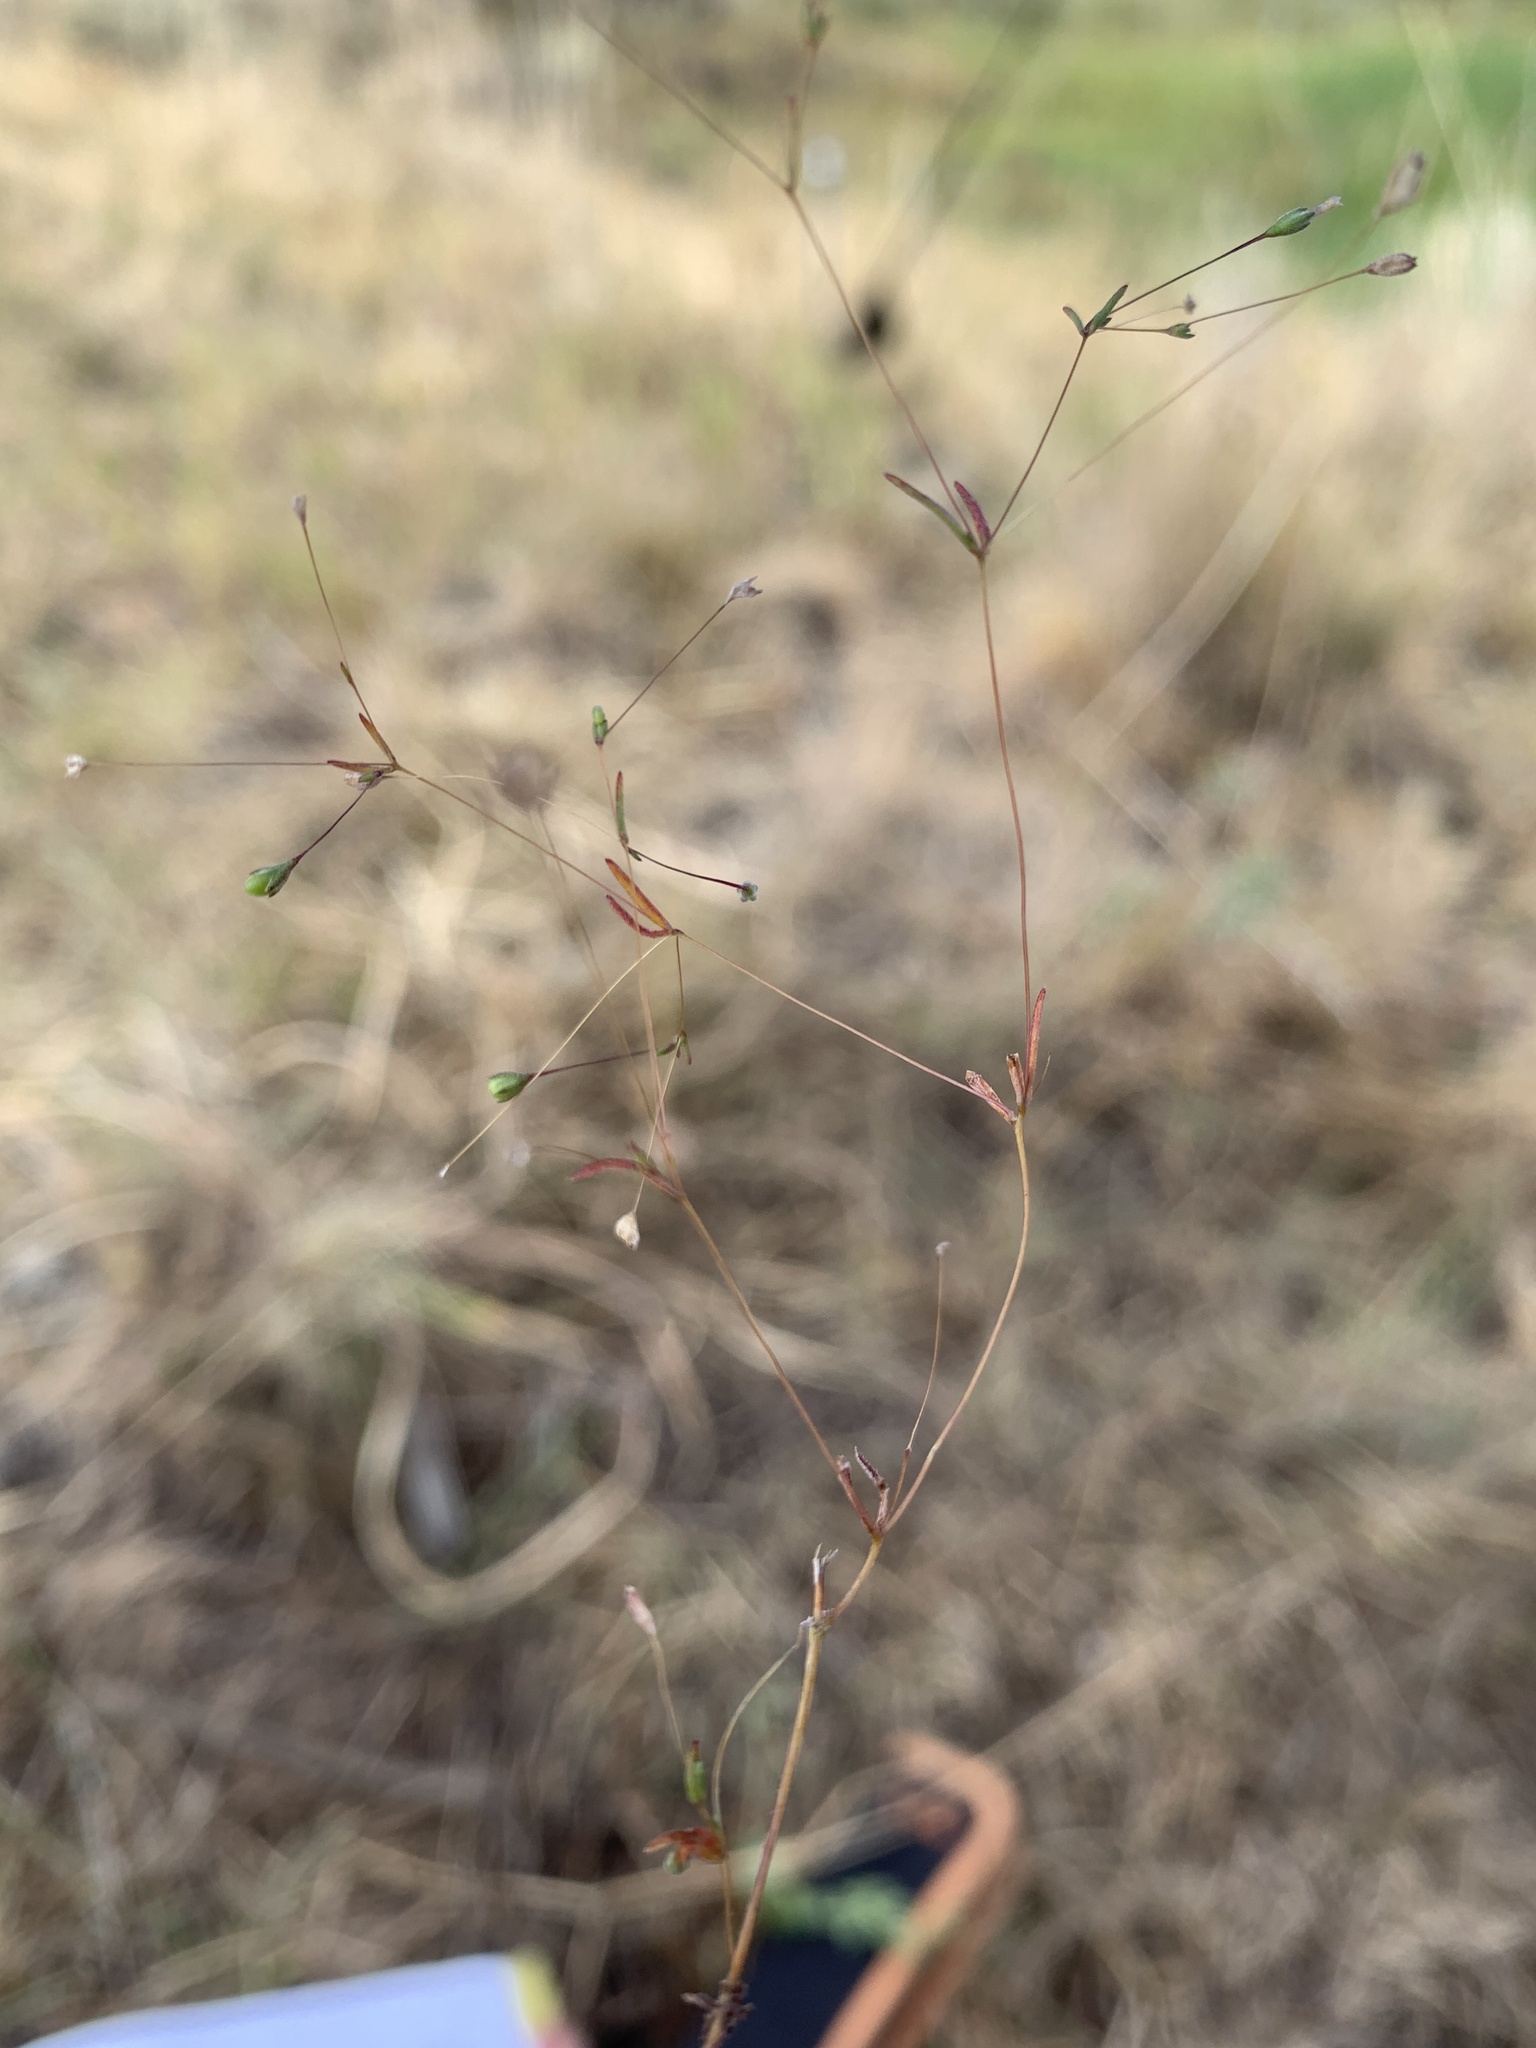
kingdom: Plantae
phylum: Tracheophyta
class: Magnoliopsida
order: Ericales
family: Polemoniaceae
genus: Linanthus
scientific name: Linanthus harknessii
